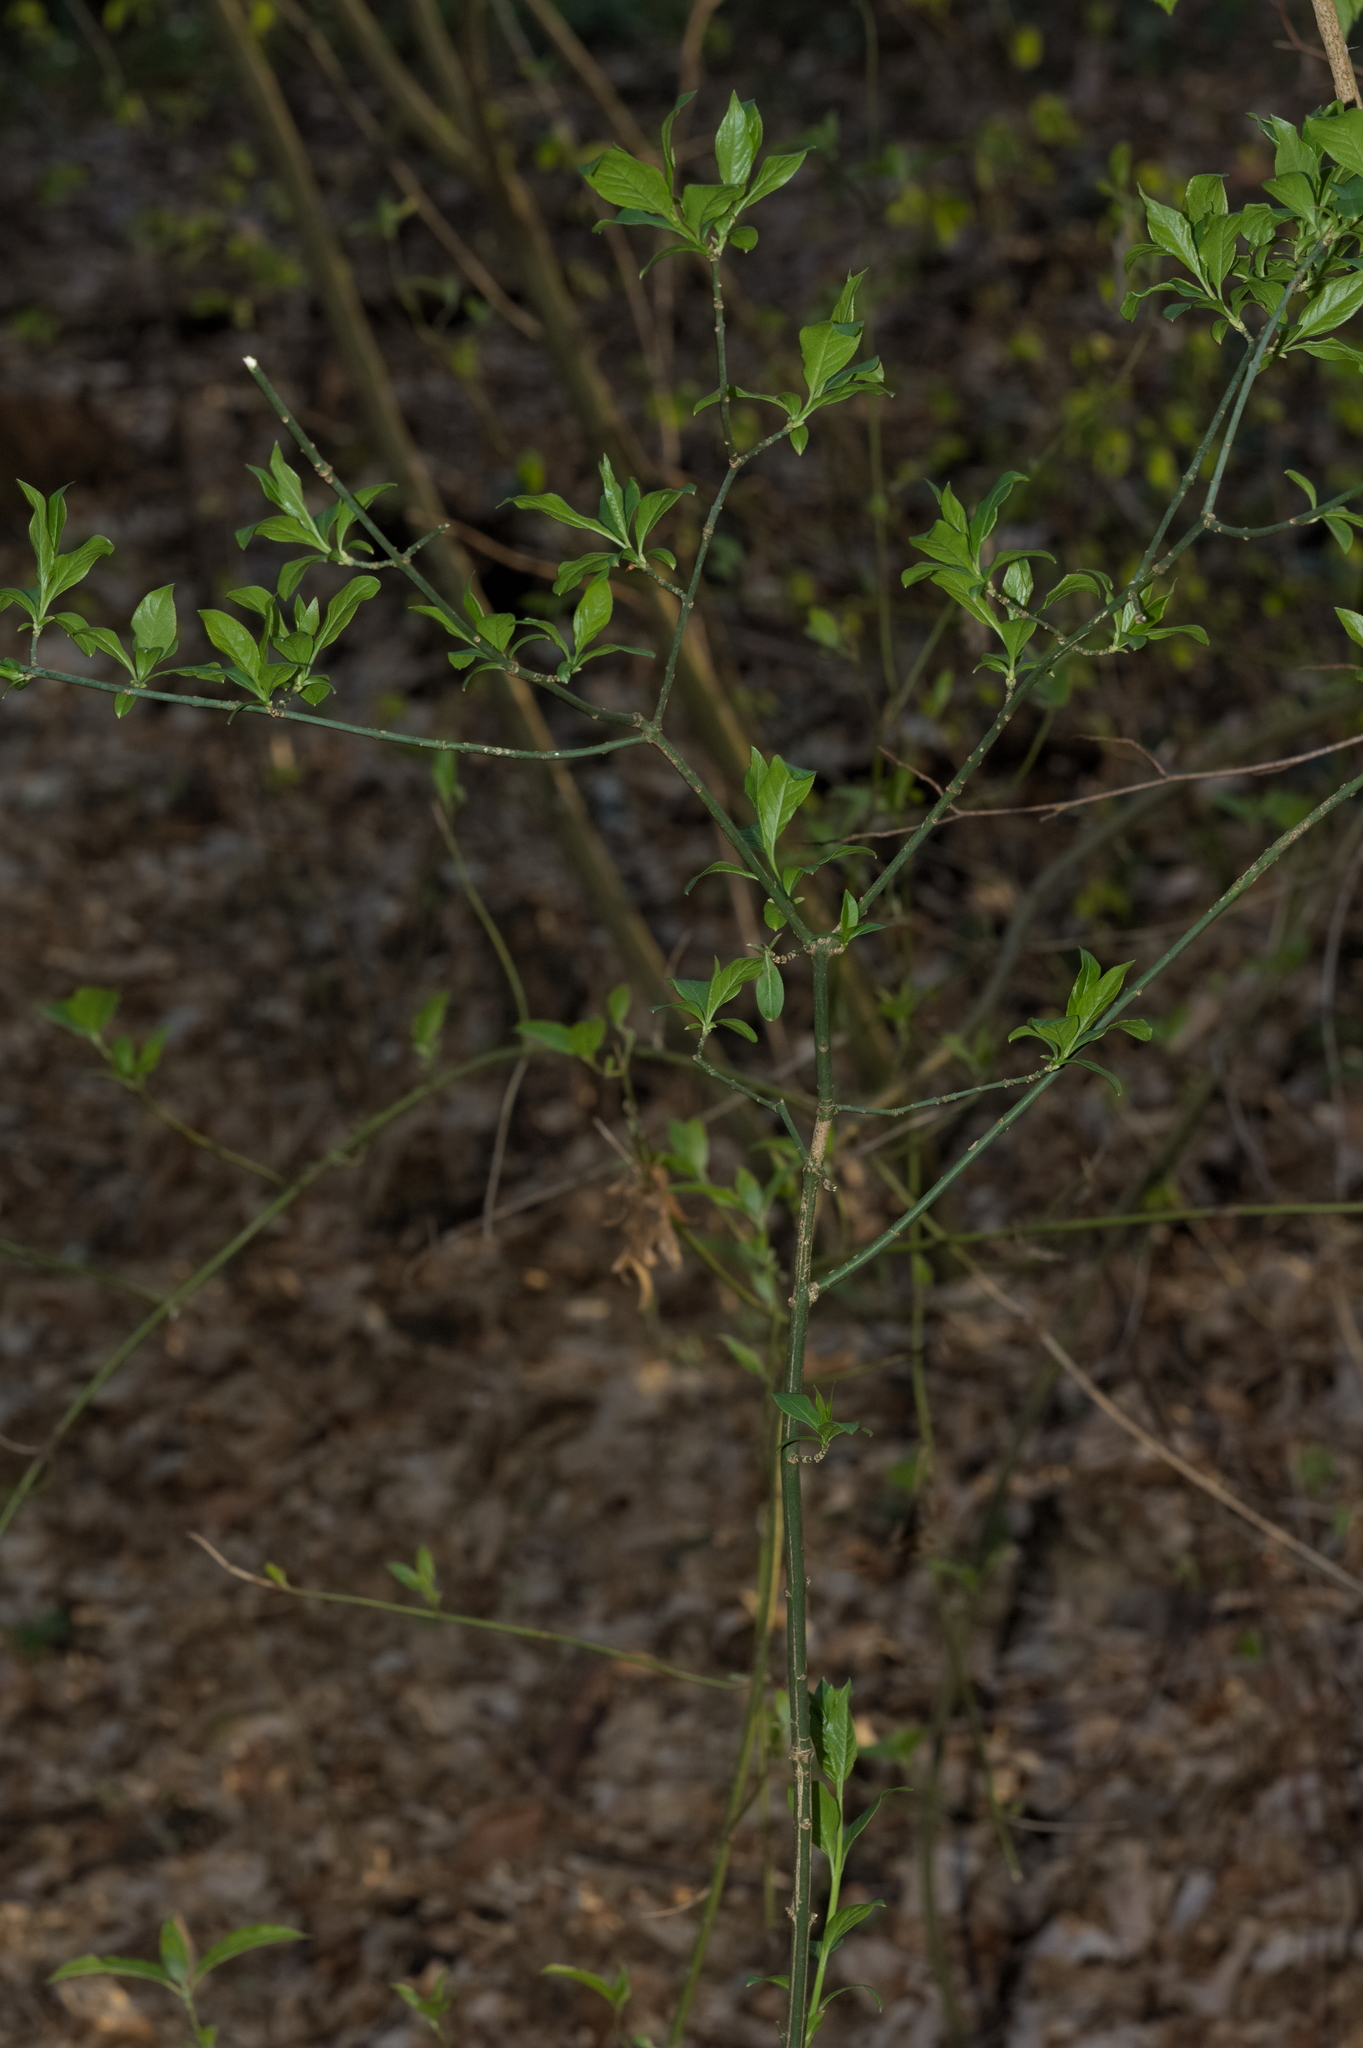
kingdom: Plantae
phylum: Tracheophyta
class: Magnoliopsida
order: Celastrales
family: Celastraceae
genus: Euonymus
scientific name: Euonymus europaeus
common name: Spindle
